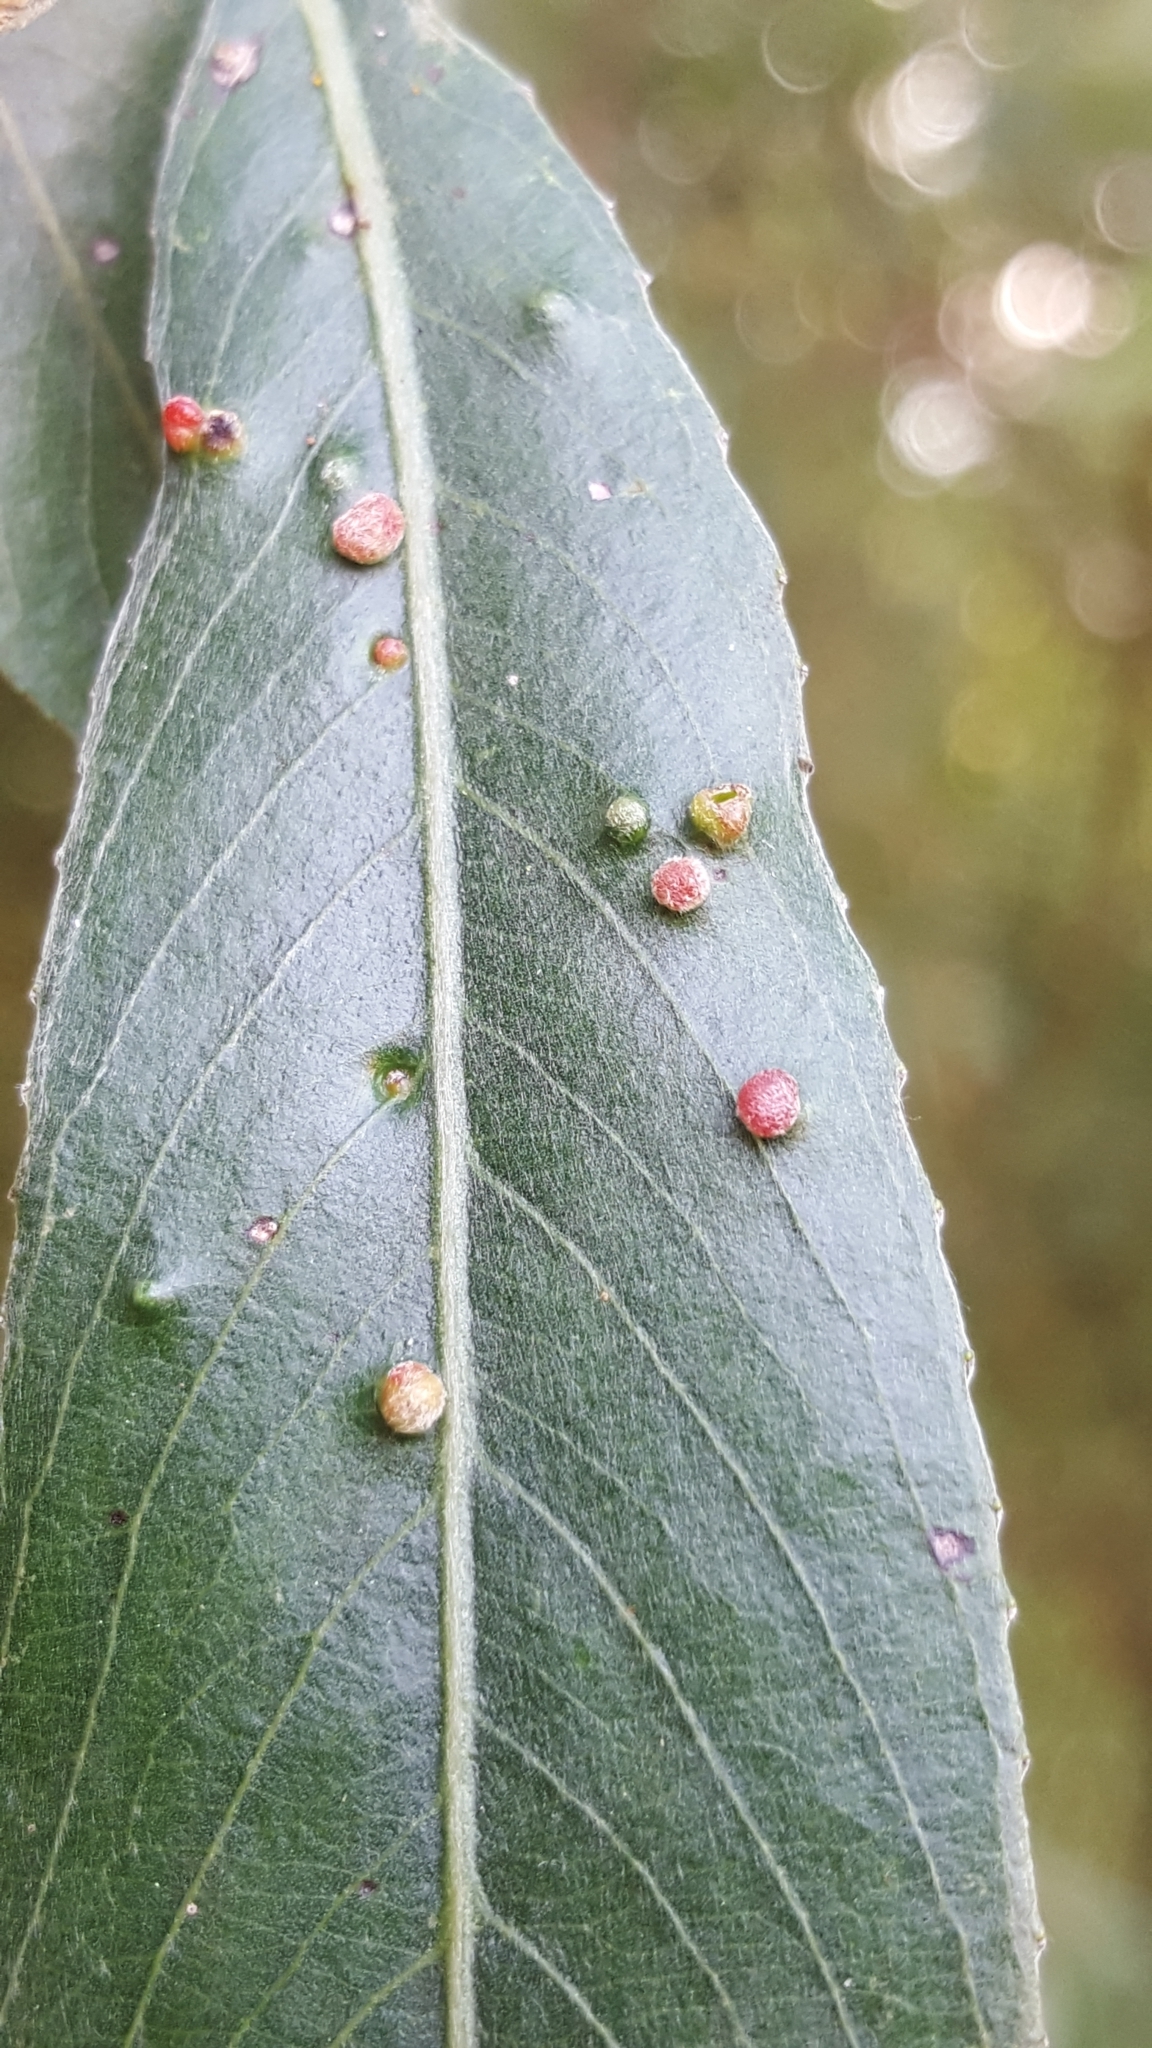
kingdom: Animalia
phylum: Arthropoda
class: Arachnida
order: Trombidiformes
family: Eriophyidae
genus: Aculus
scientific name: Aculus tetanothrix
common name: Willow bead gall mite
